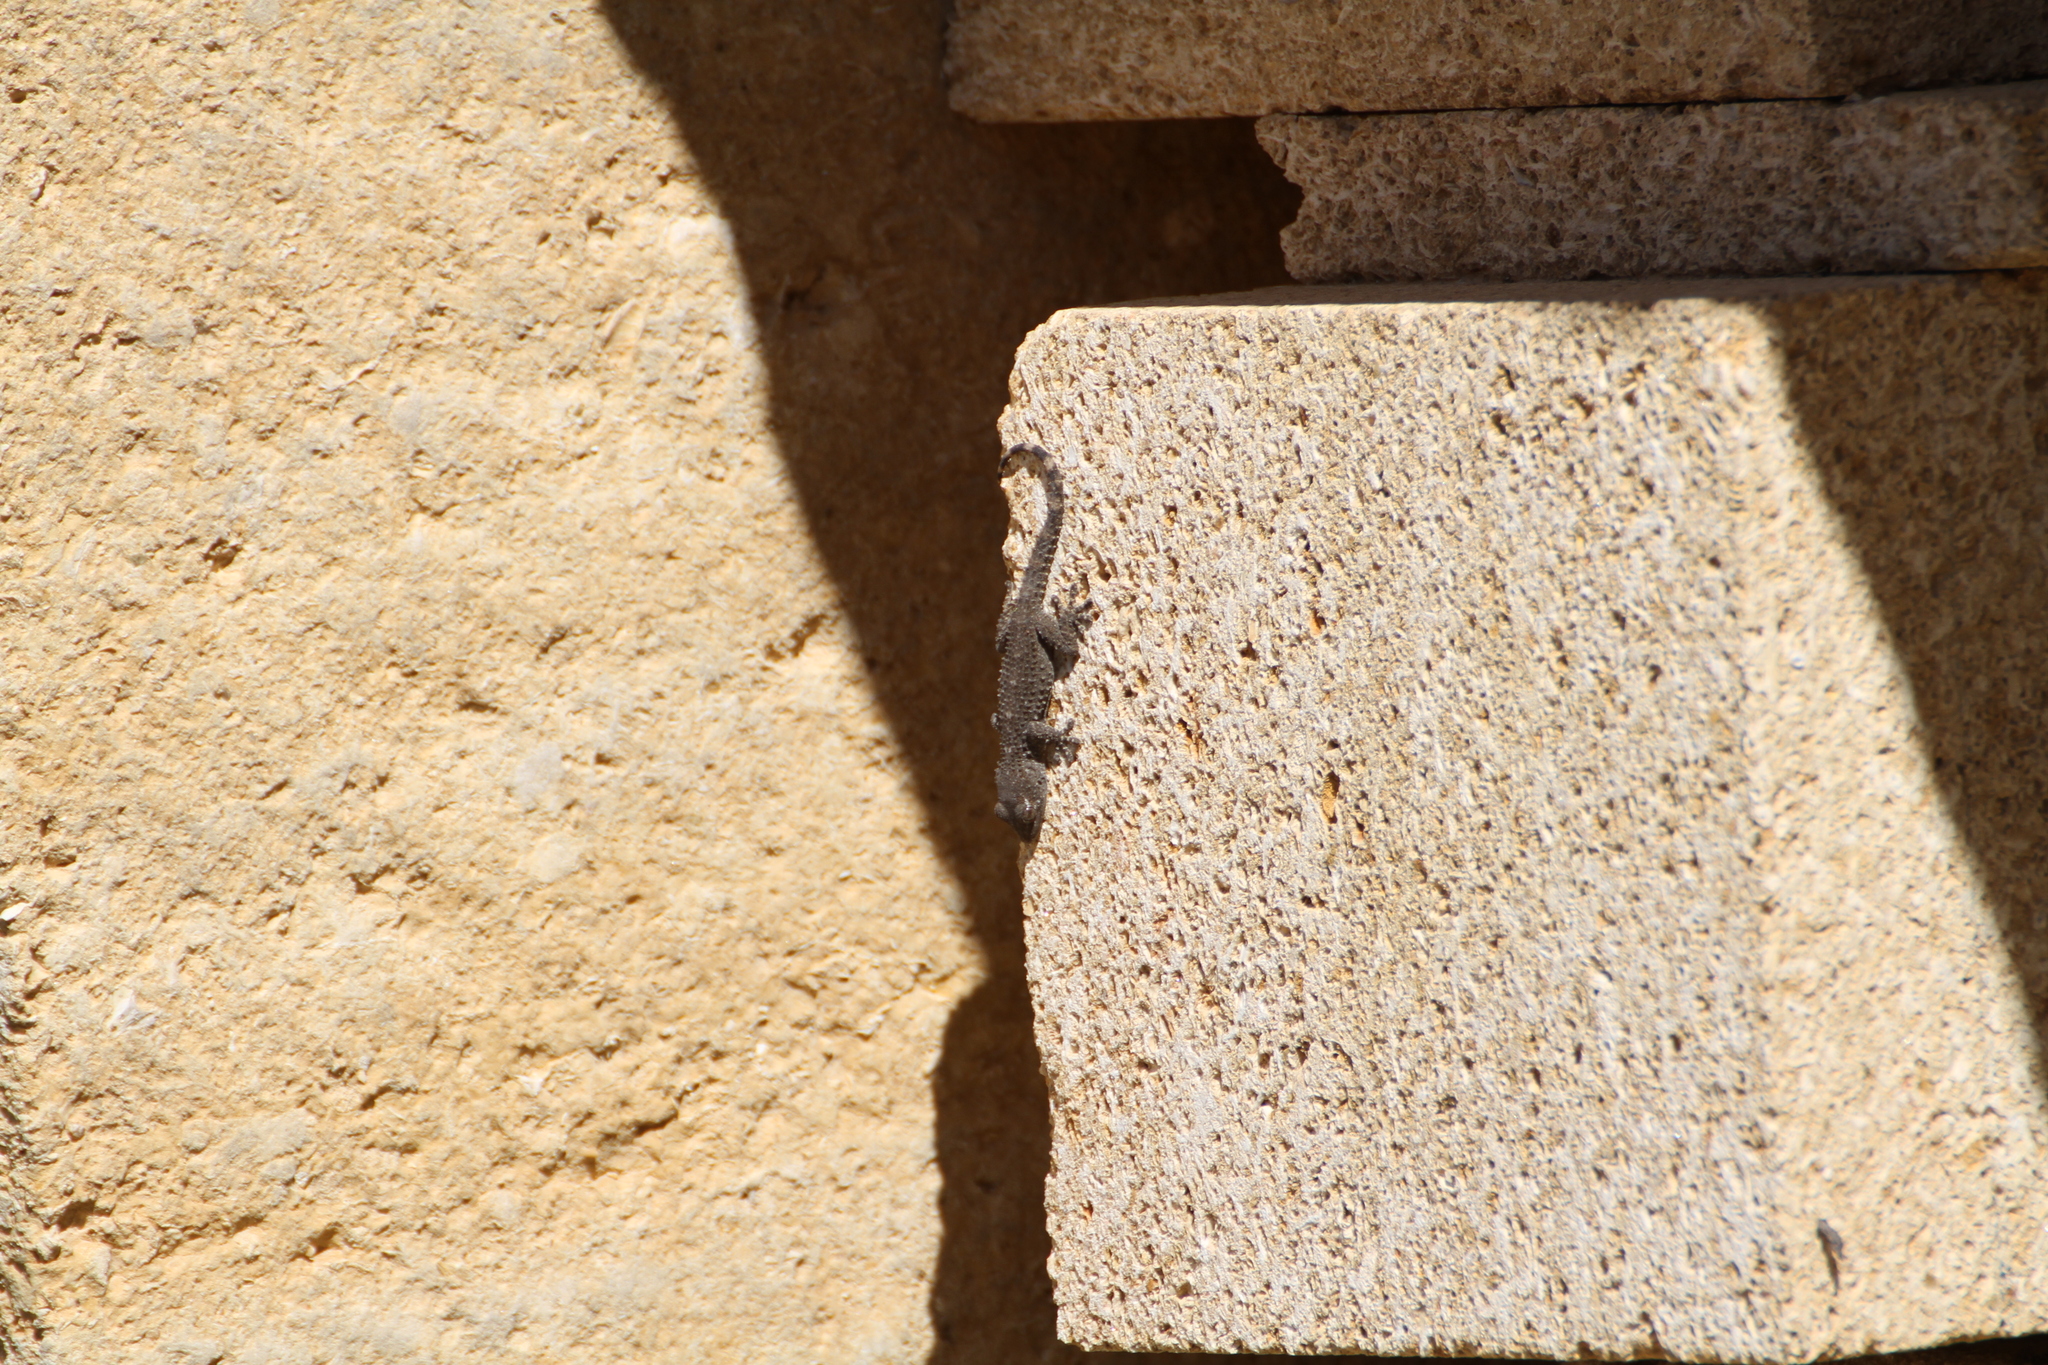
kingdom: Animalia
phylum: Chordata
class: Squamata
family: Phyllodactylidae
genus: Tarentola
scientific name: Tarentola mauritanica
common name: Moorish gecko
